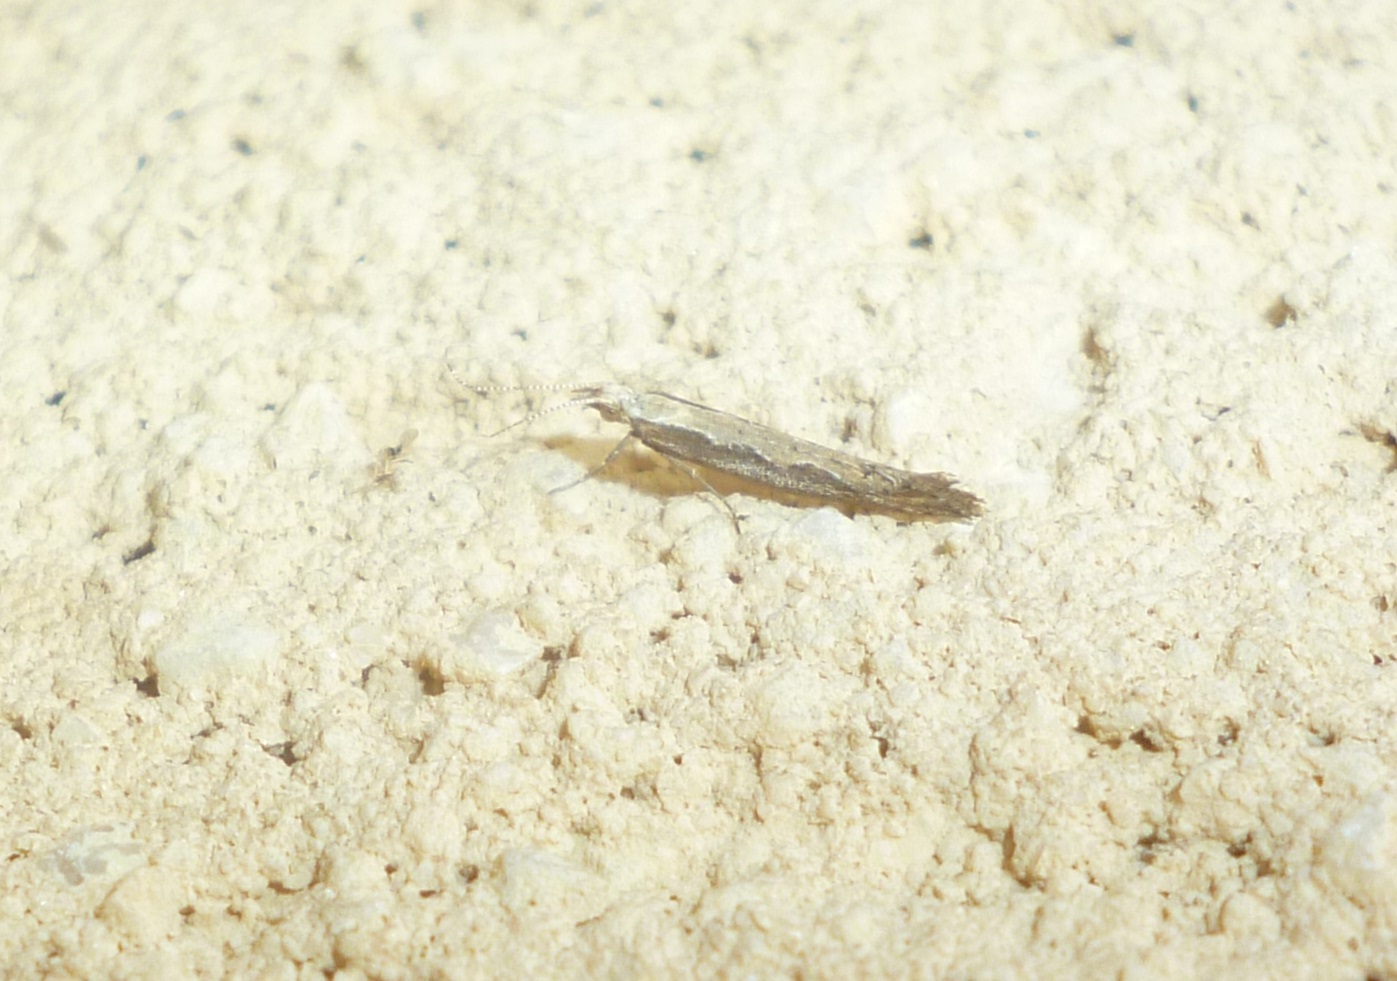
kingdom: Animalia
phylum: Arthropoda
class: Insecta
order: Lepidoptera
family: Plutellidae
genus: Plutella
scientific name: Plutella xylostella
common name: Diamond-back moth
